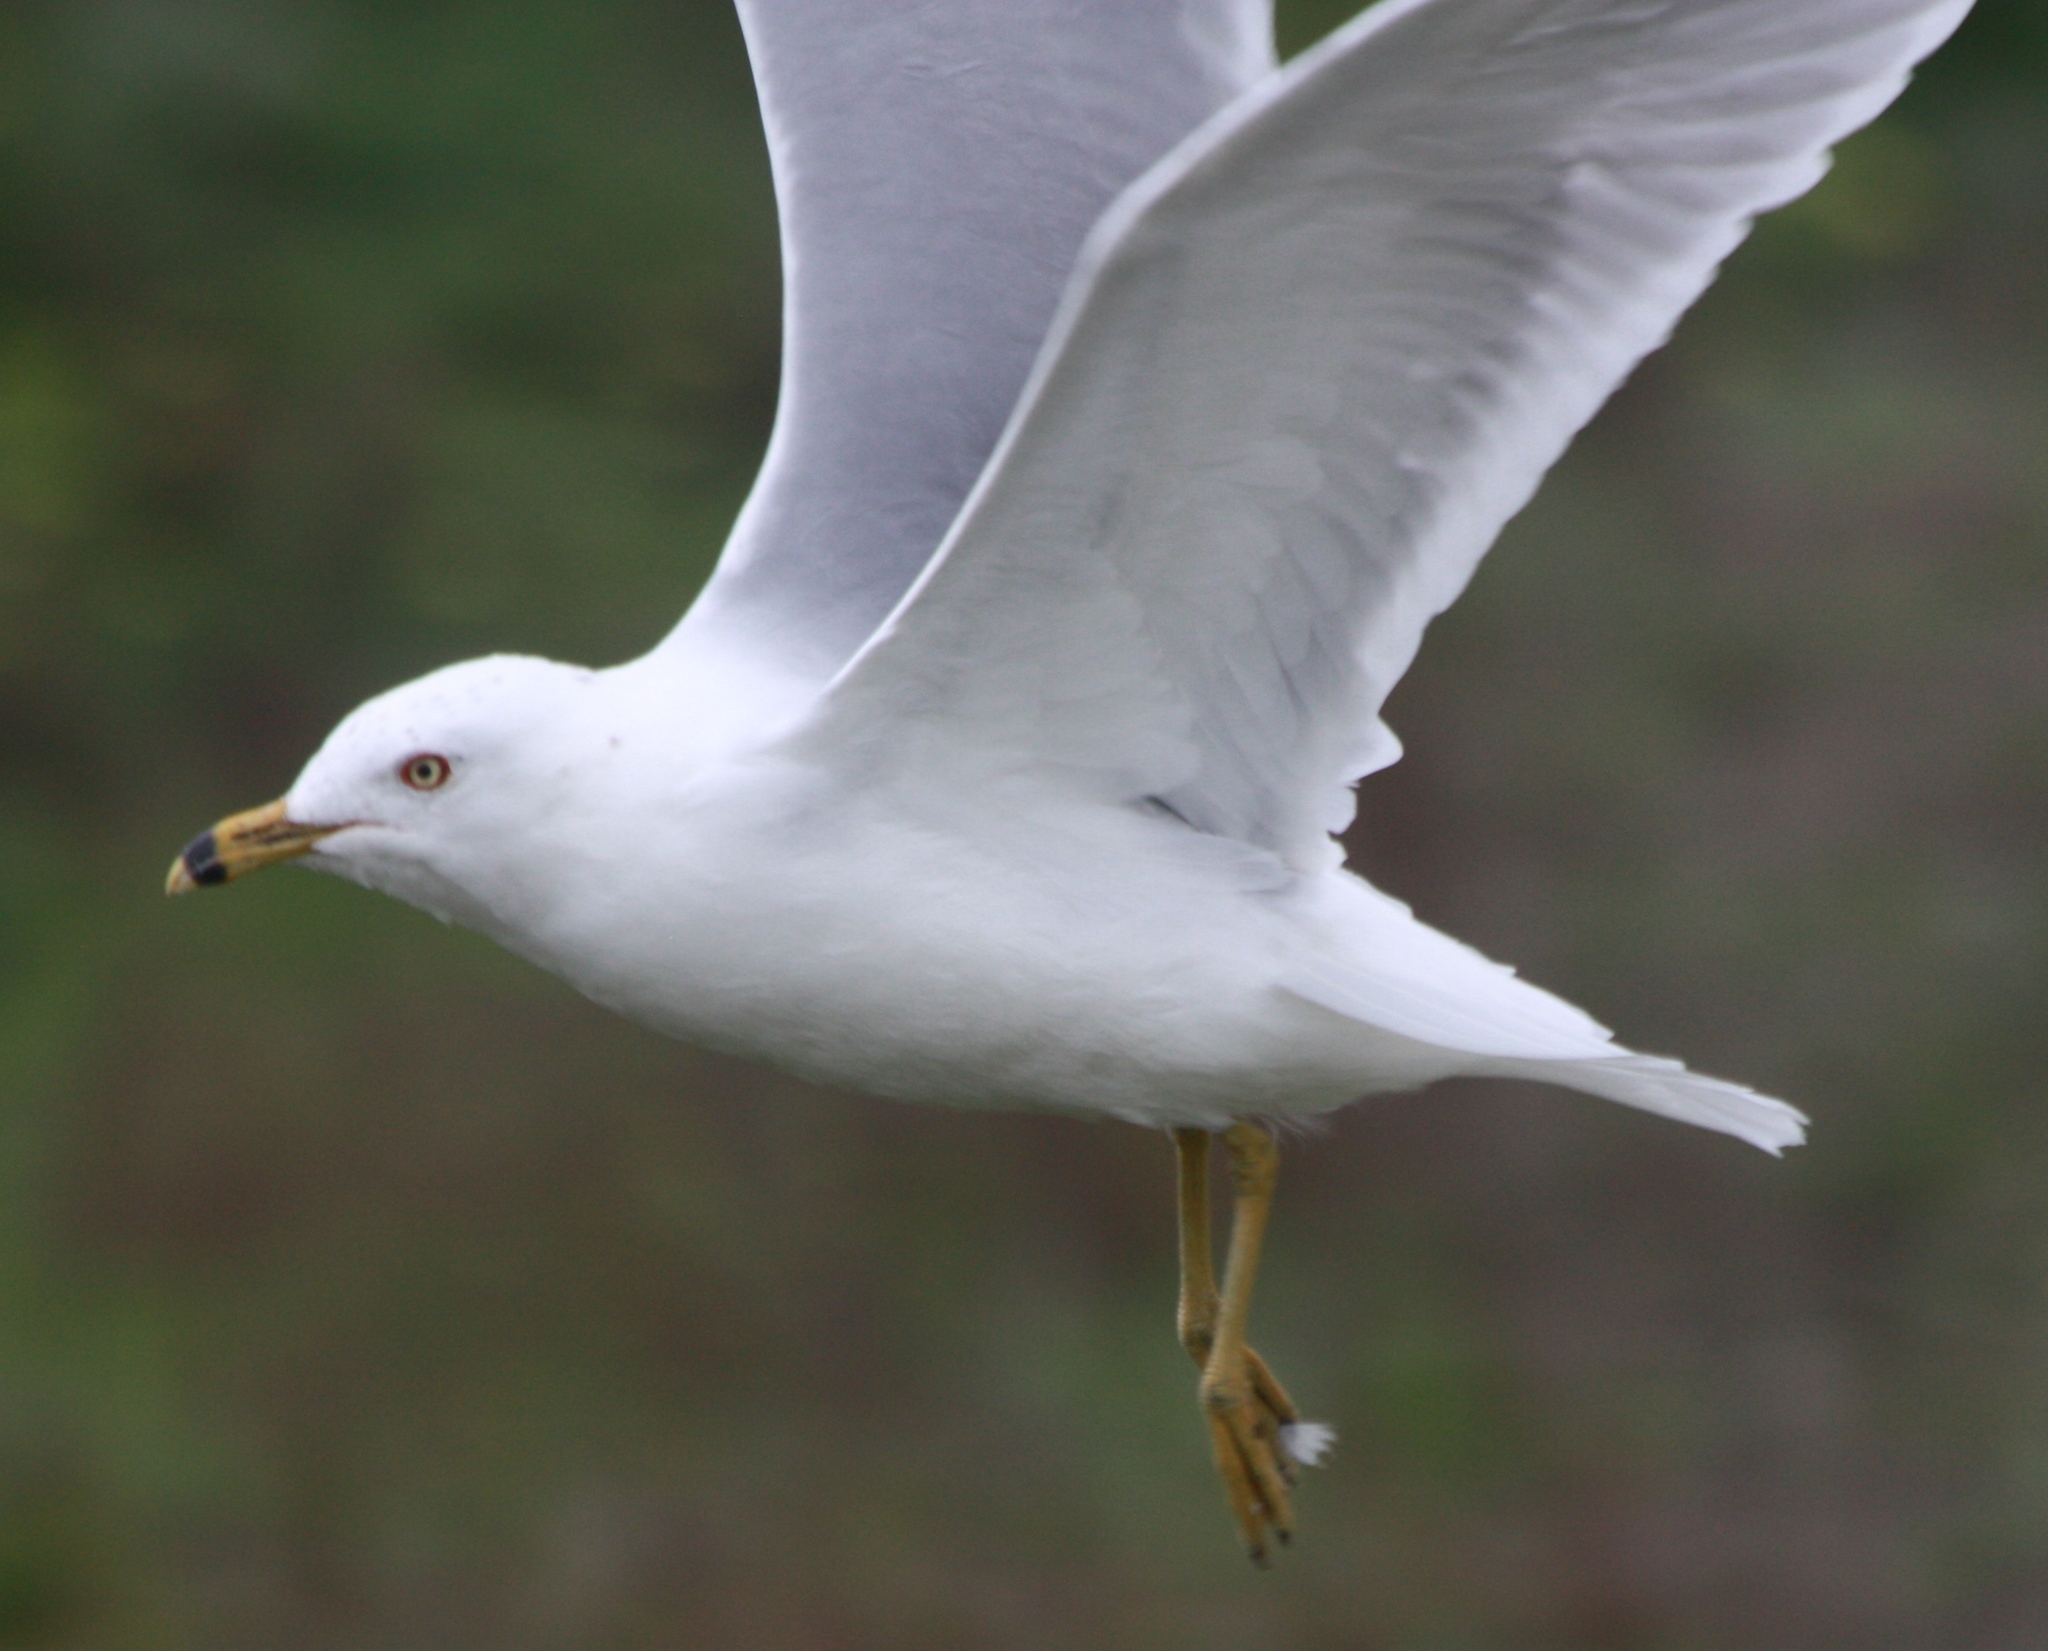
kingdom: Animalia
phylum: Chordata
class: Aves
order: Charadriiformes
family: Laridae
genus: Larus
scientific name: Larus delawarensis
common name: Ring-billed gull
